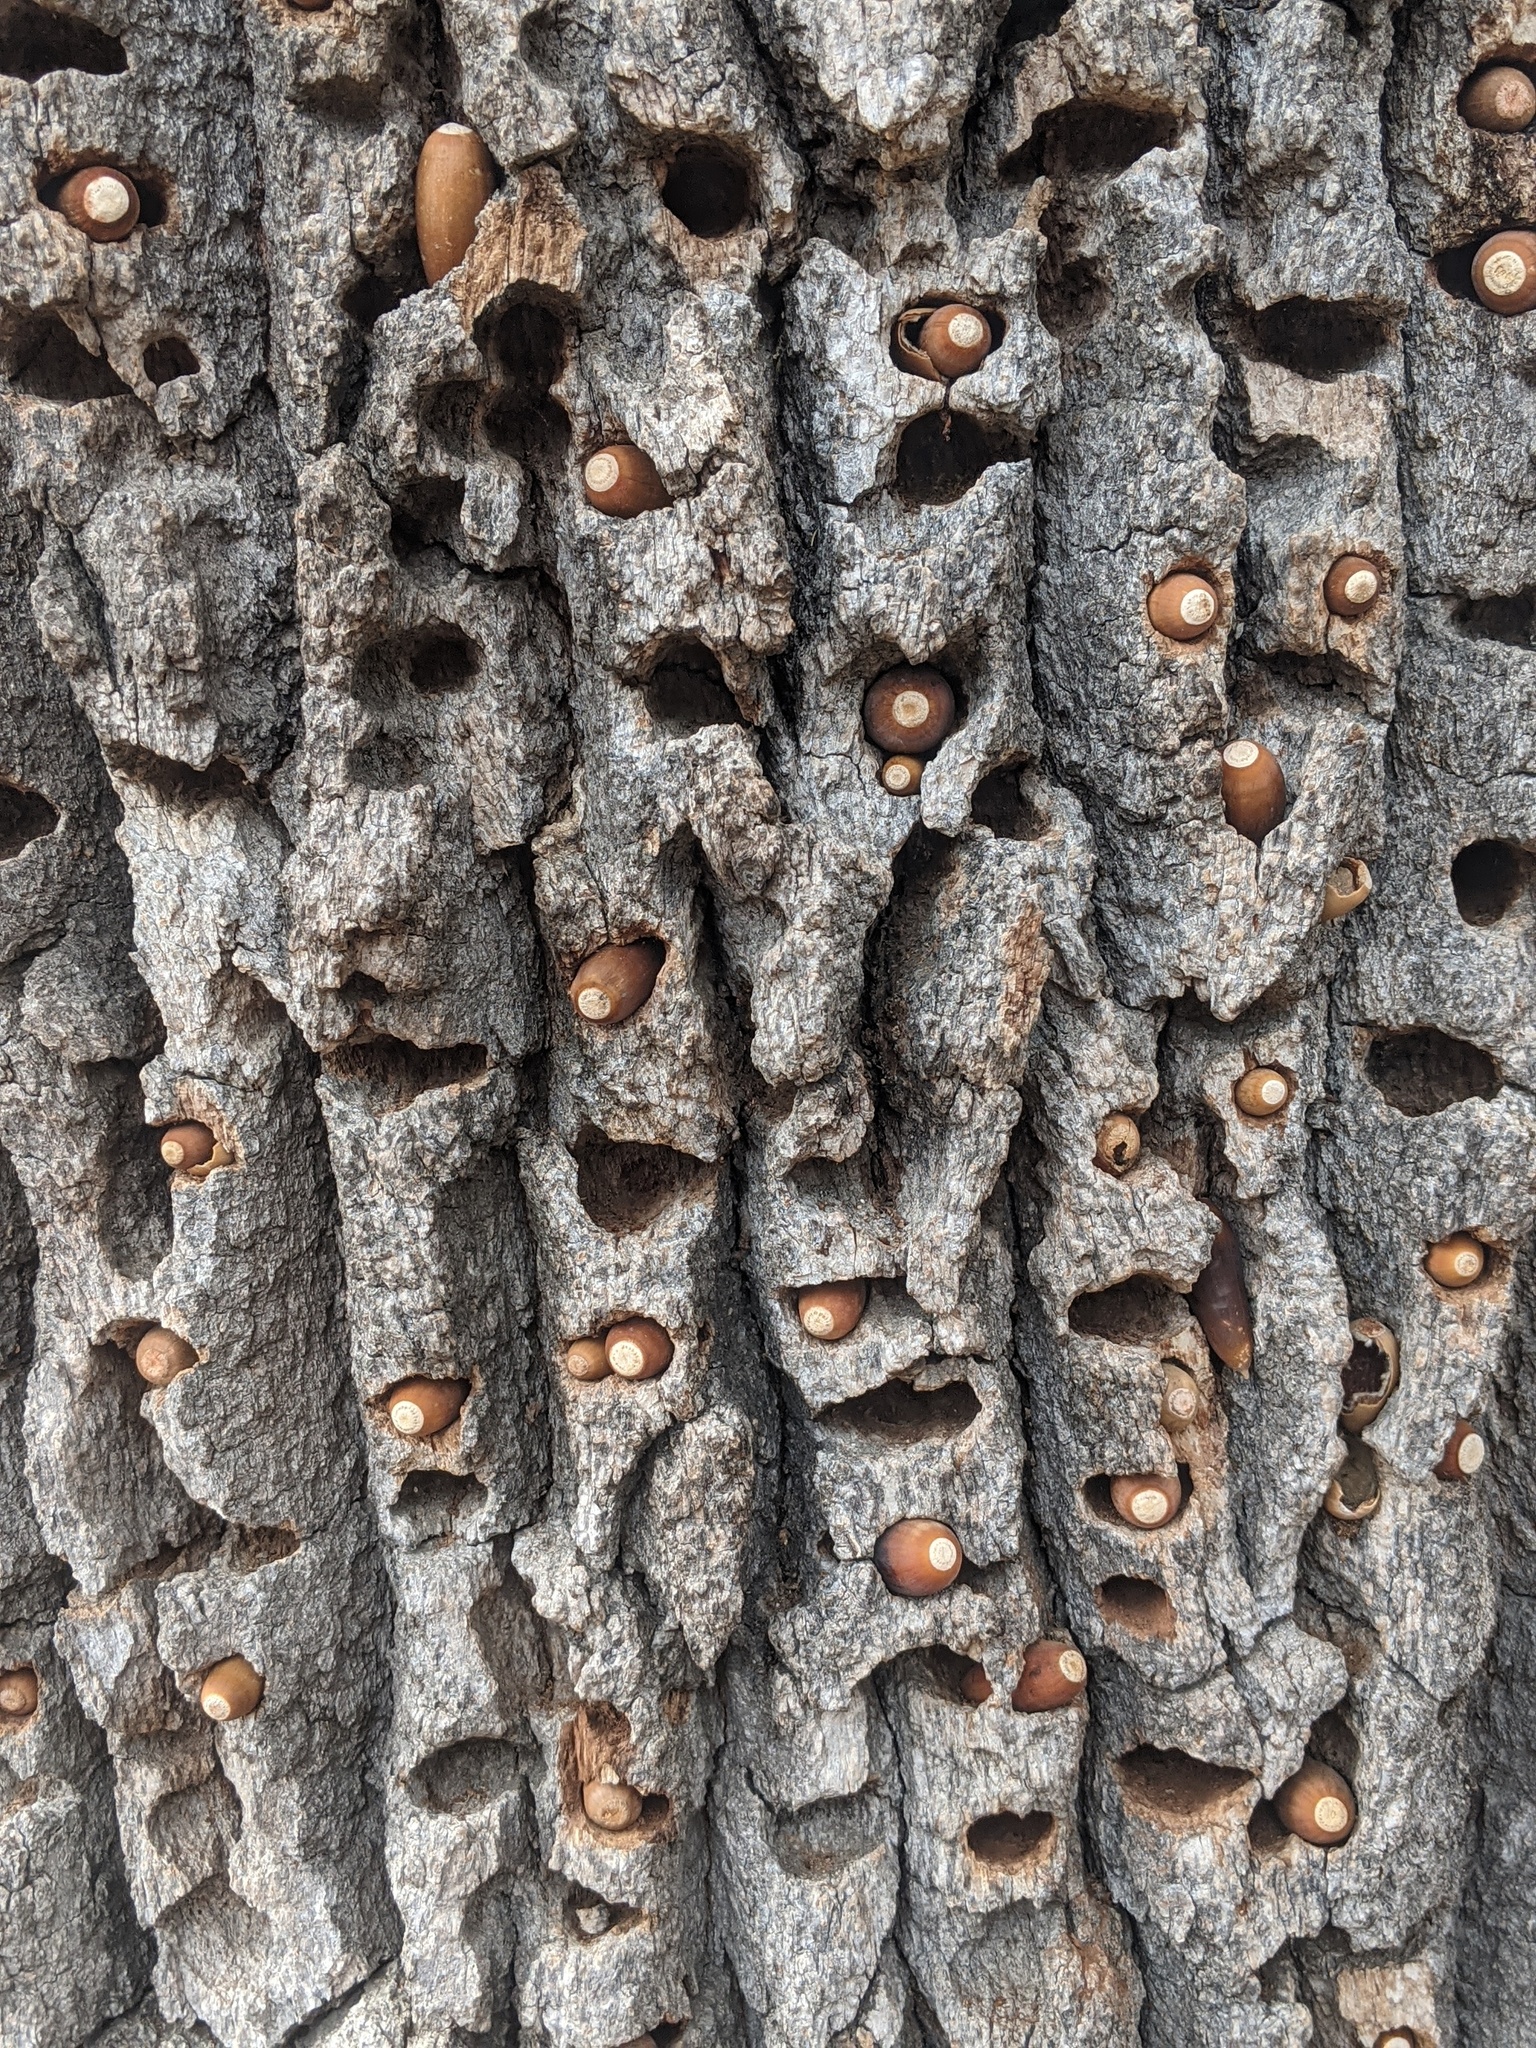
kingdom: Animalia
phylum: Chordata
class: Aves
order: Piciformes
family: Picidae
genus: Melanerpes
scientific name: Melanerpes formicivorus
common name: Acorn woodpecker
